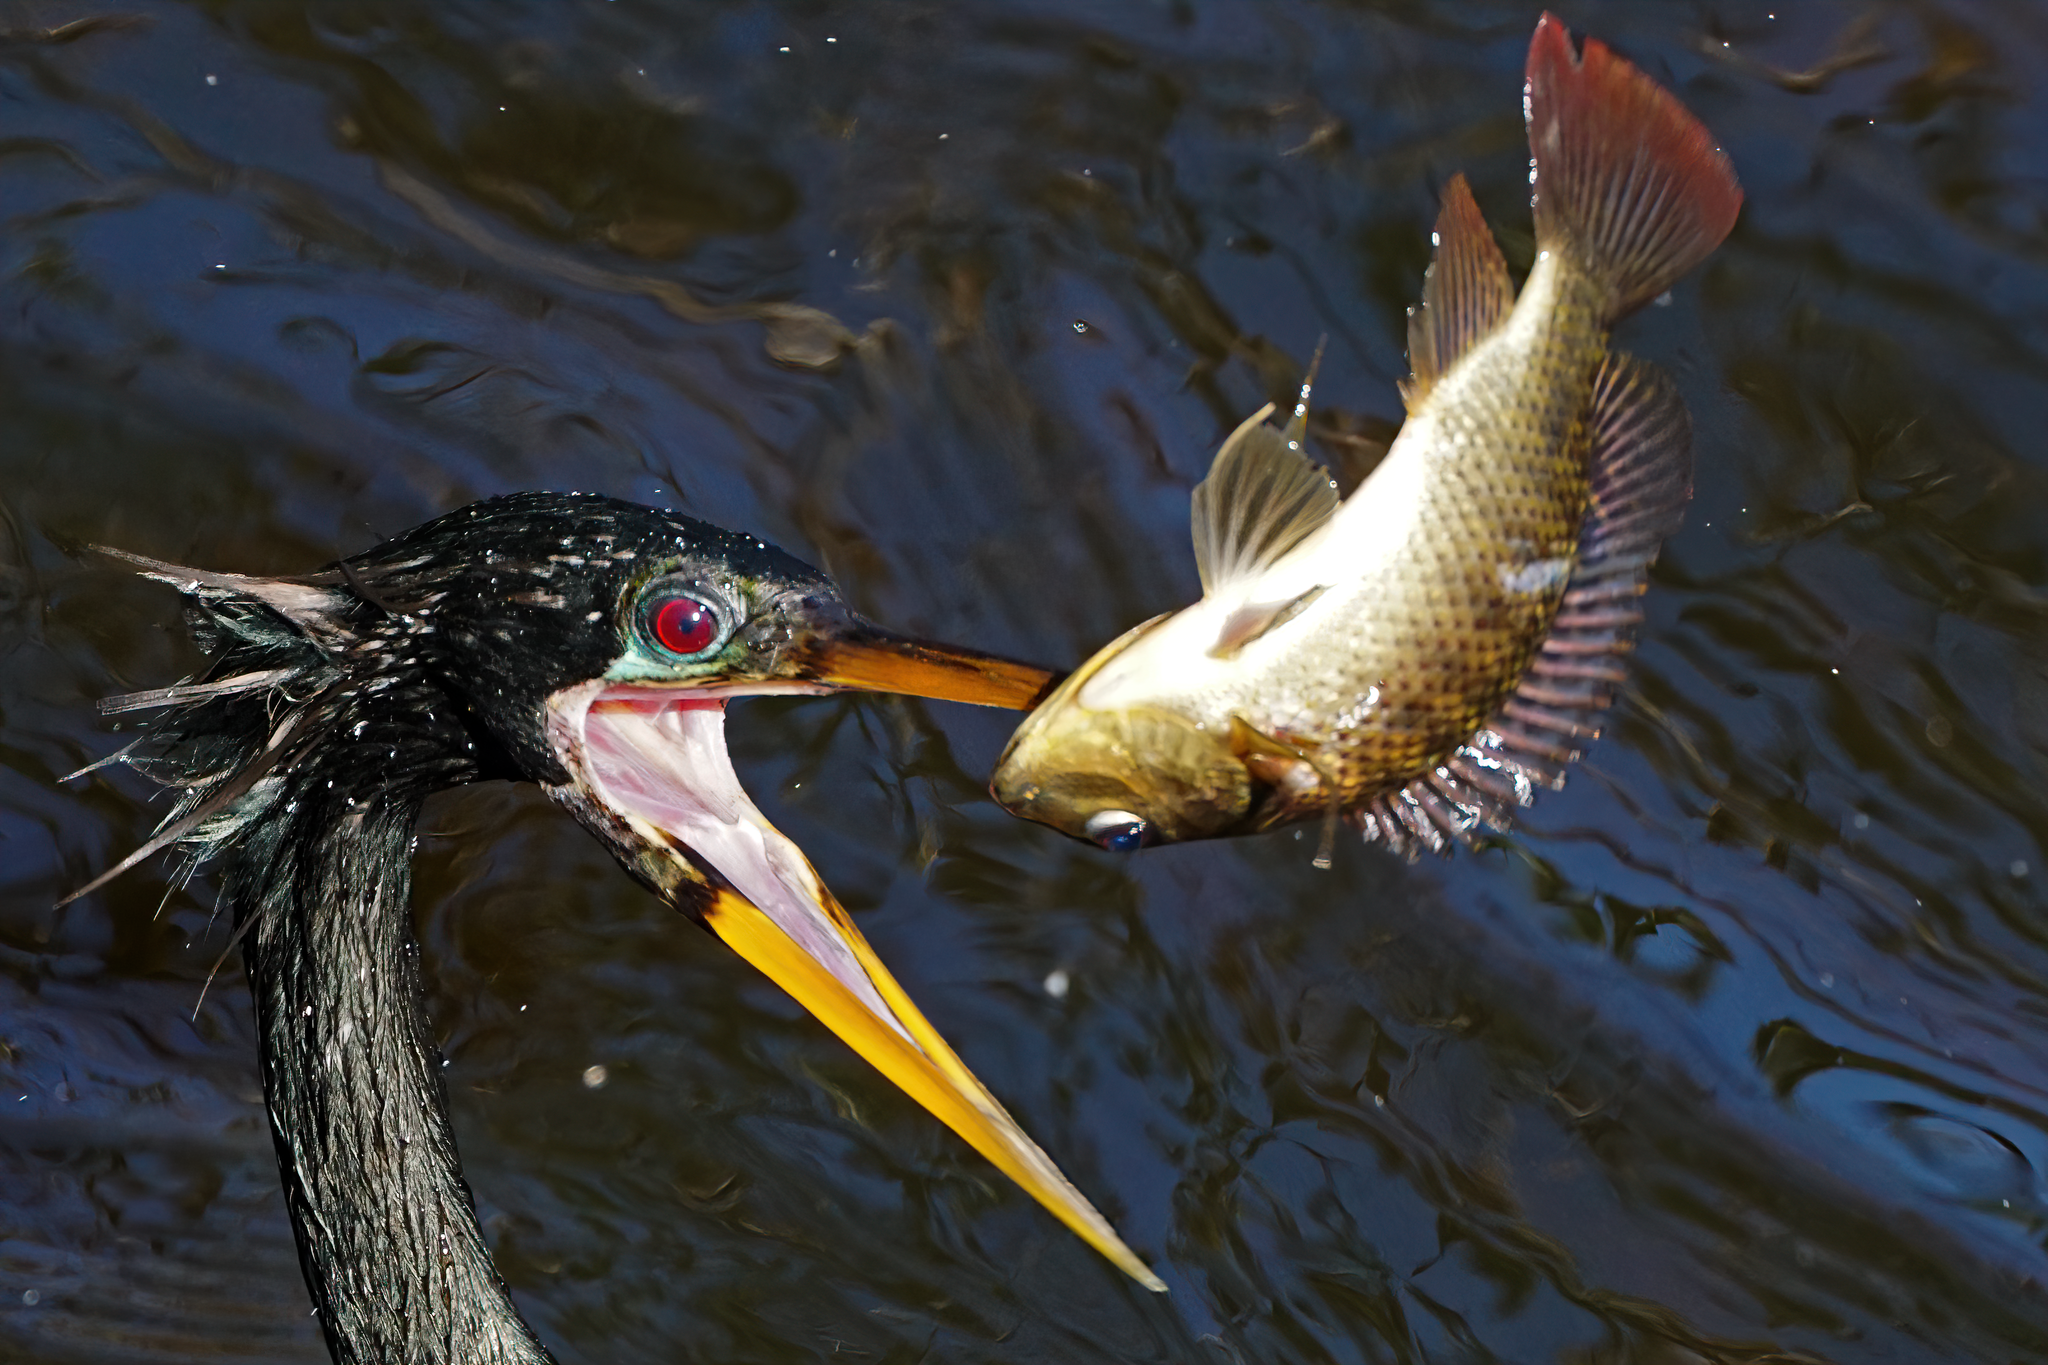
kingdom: Animalia
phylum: Chordata
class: Aves
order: Suliformes
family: Anhingidae
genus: Anhinga
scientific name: Anhinga anhinga
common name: Anhinga
